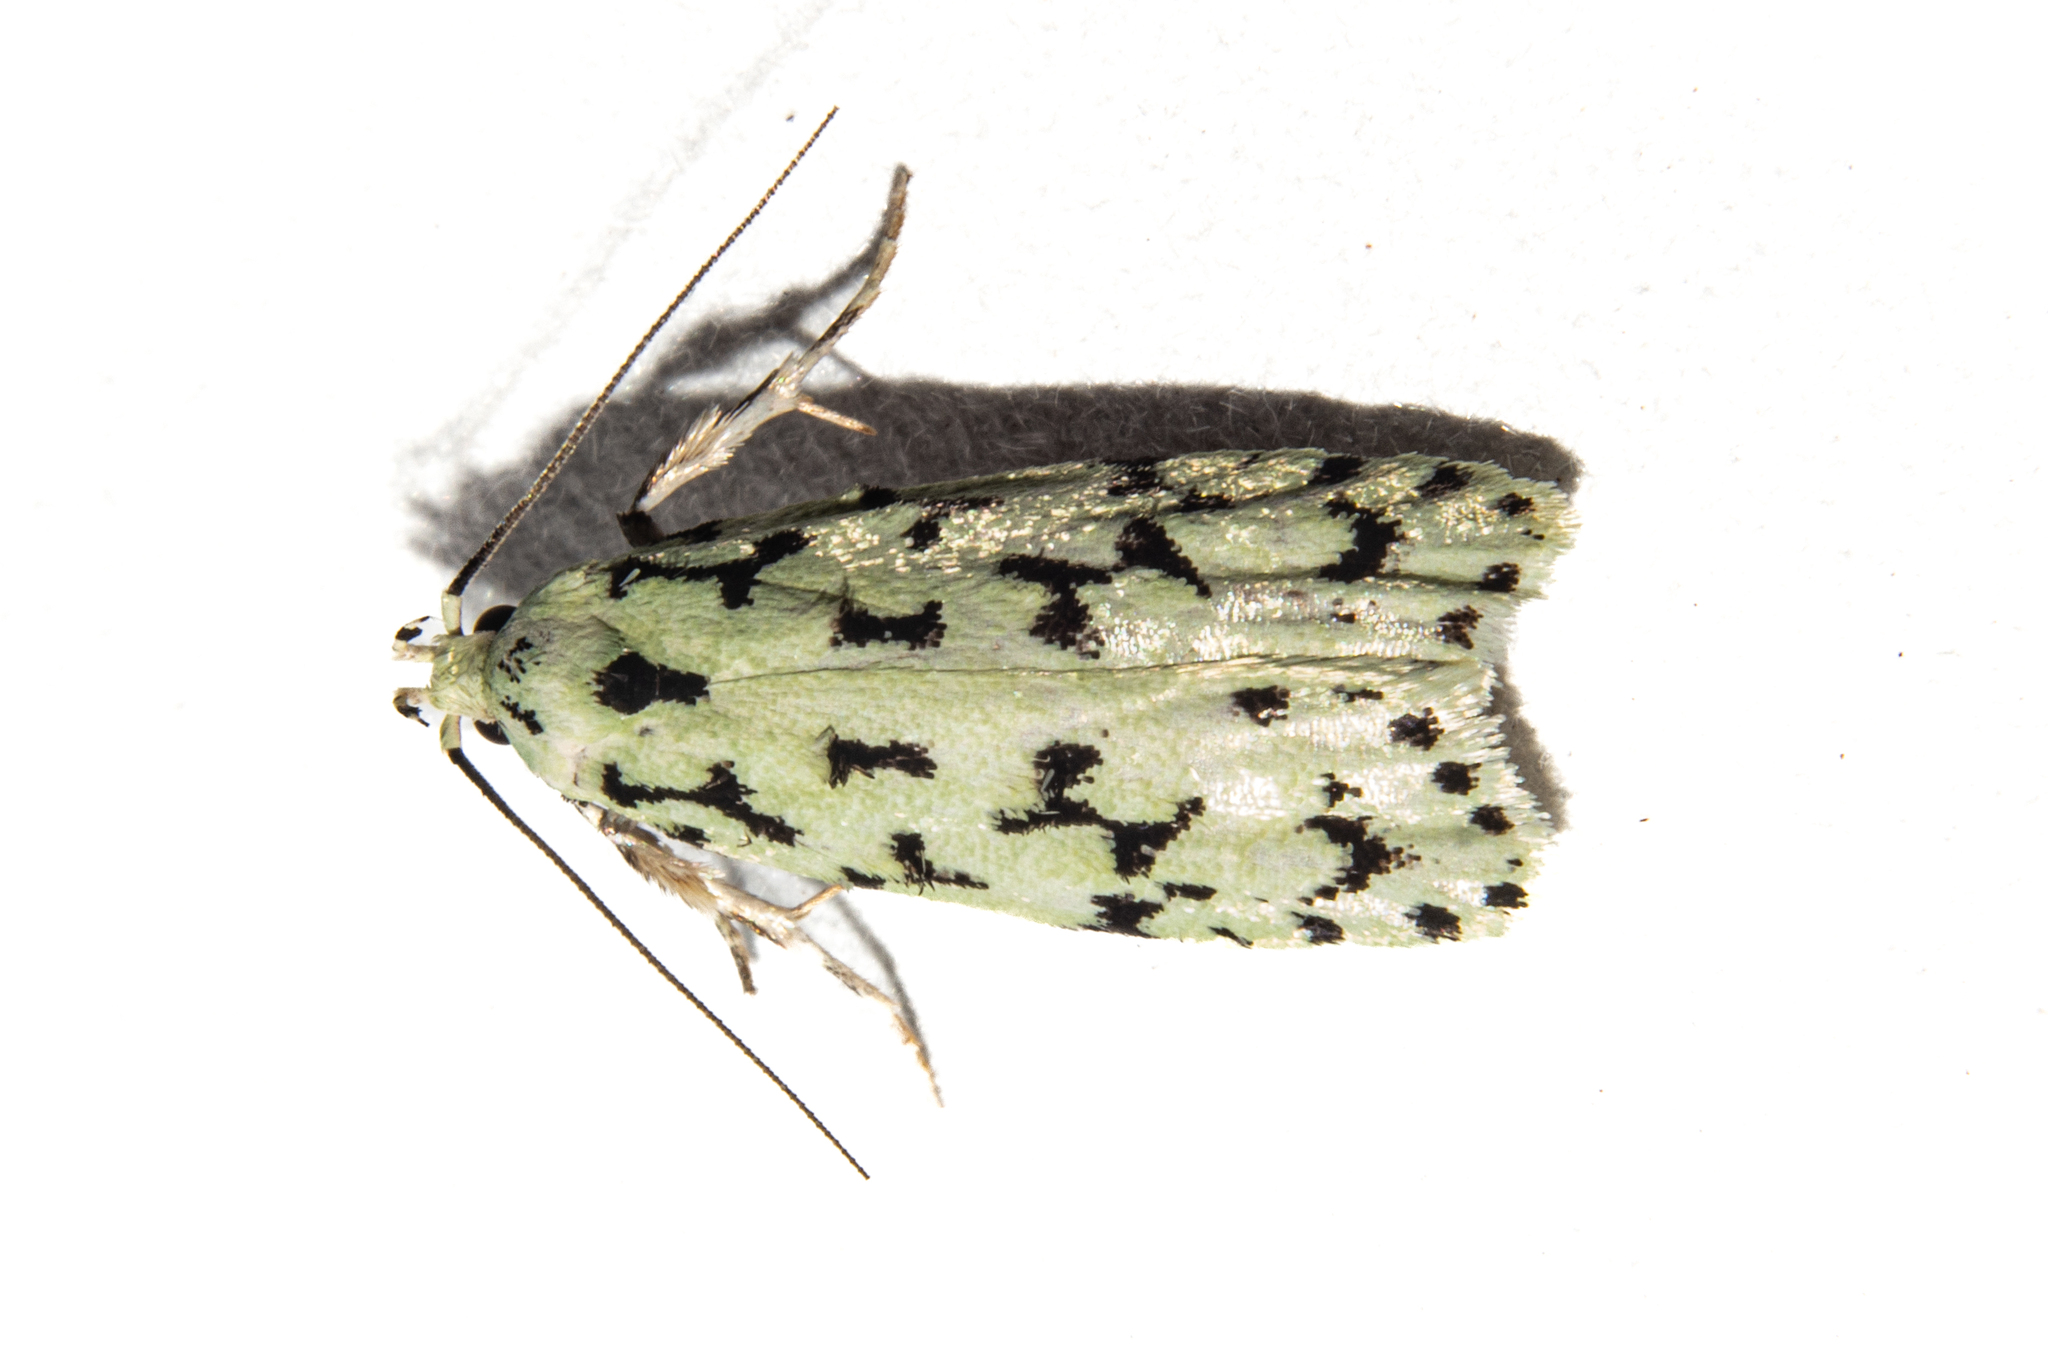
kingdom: Animalia
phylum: Arthropoda
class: Insecta
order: Lepidoptera
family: Oecophoridae
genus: Izatha
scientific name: Izatha huttoni
